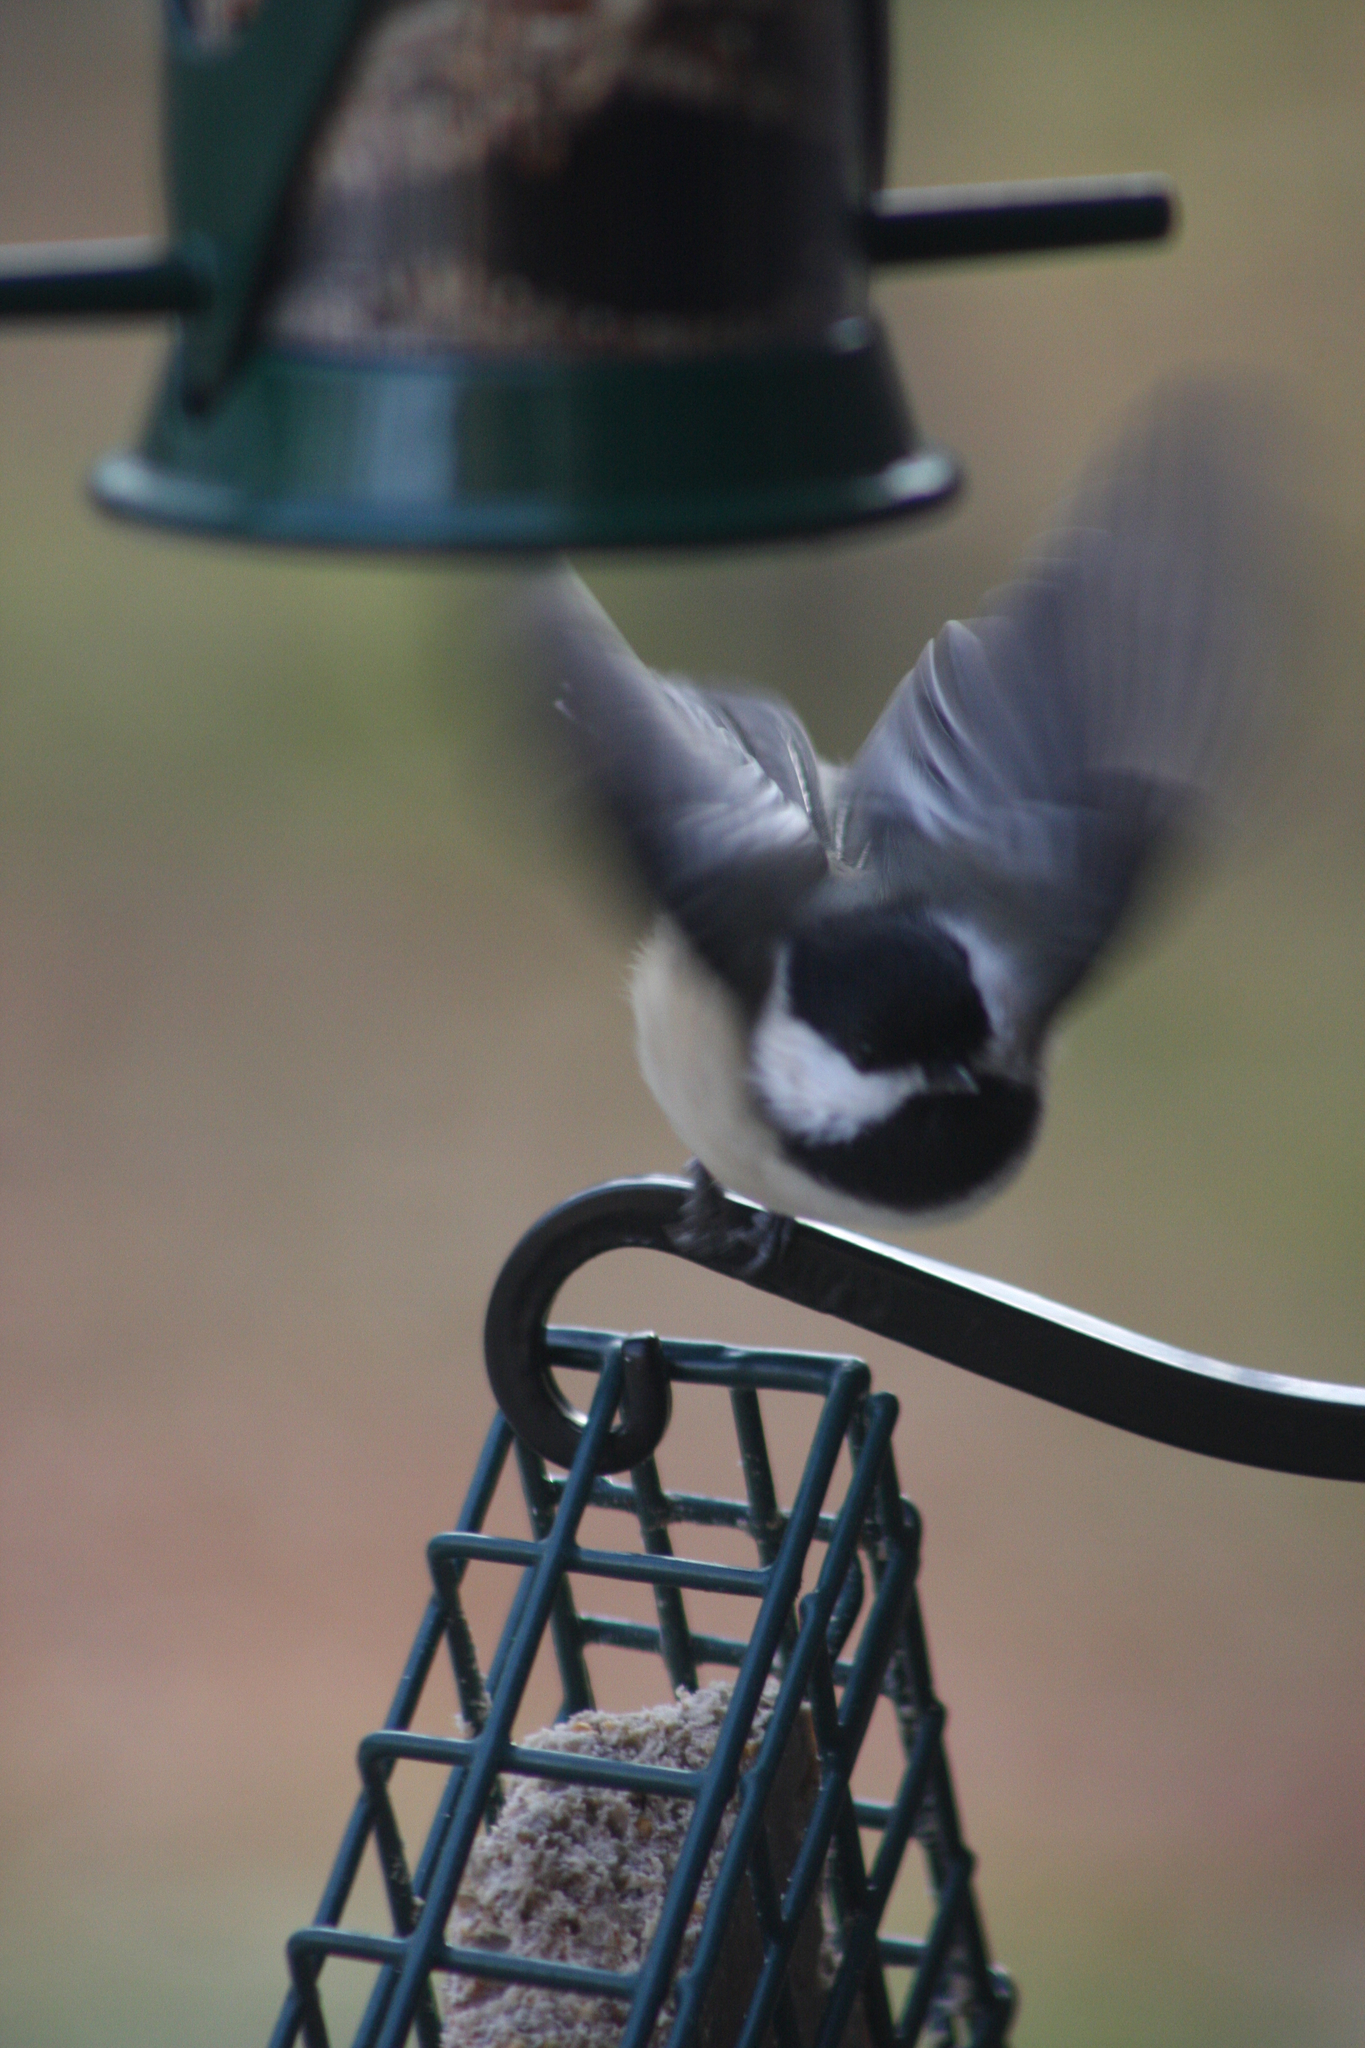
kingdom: Animalia
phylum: Chordata
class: Aves
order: Passeriformes
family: Paridae
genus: Poecile
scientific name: Poecile atricapillus
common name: Black-capped chickadee
